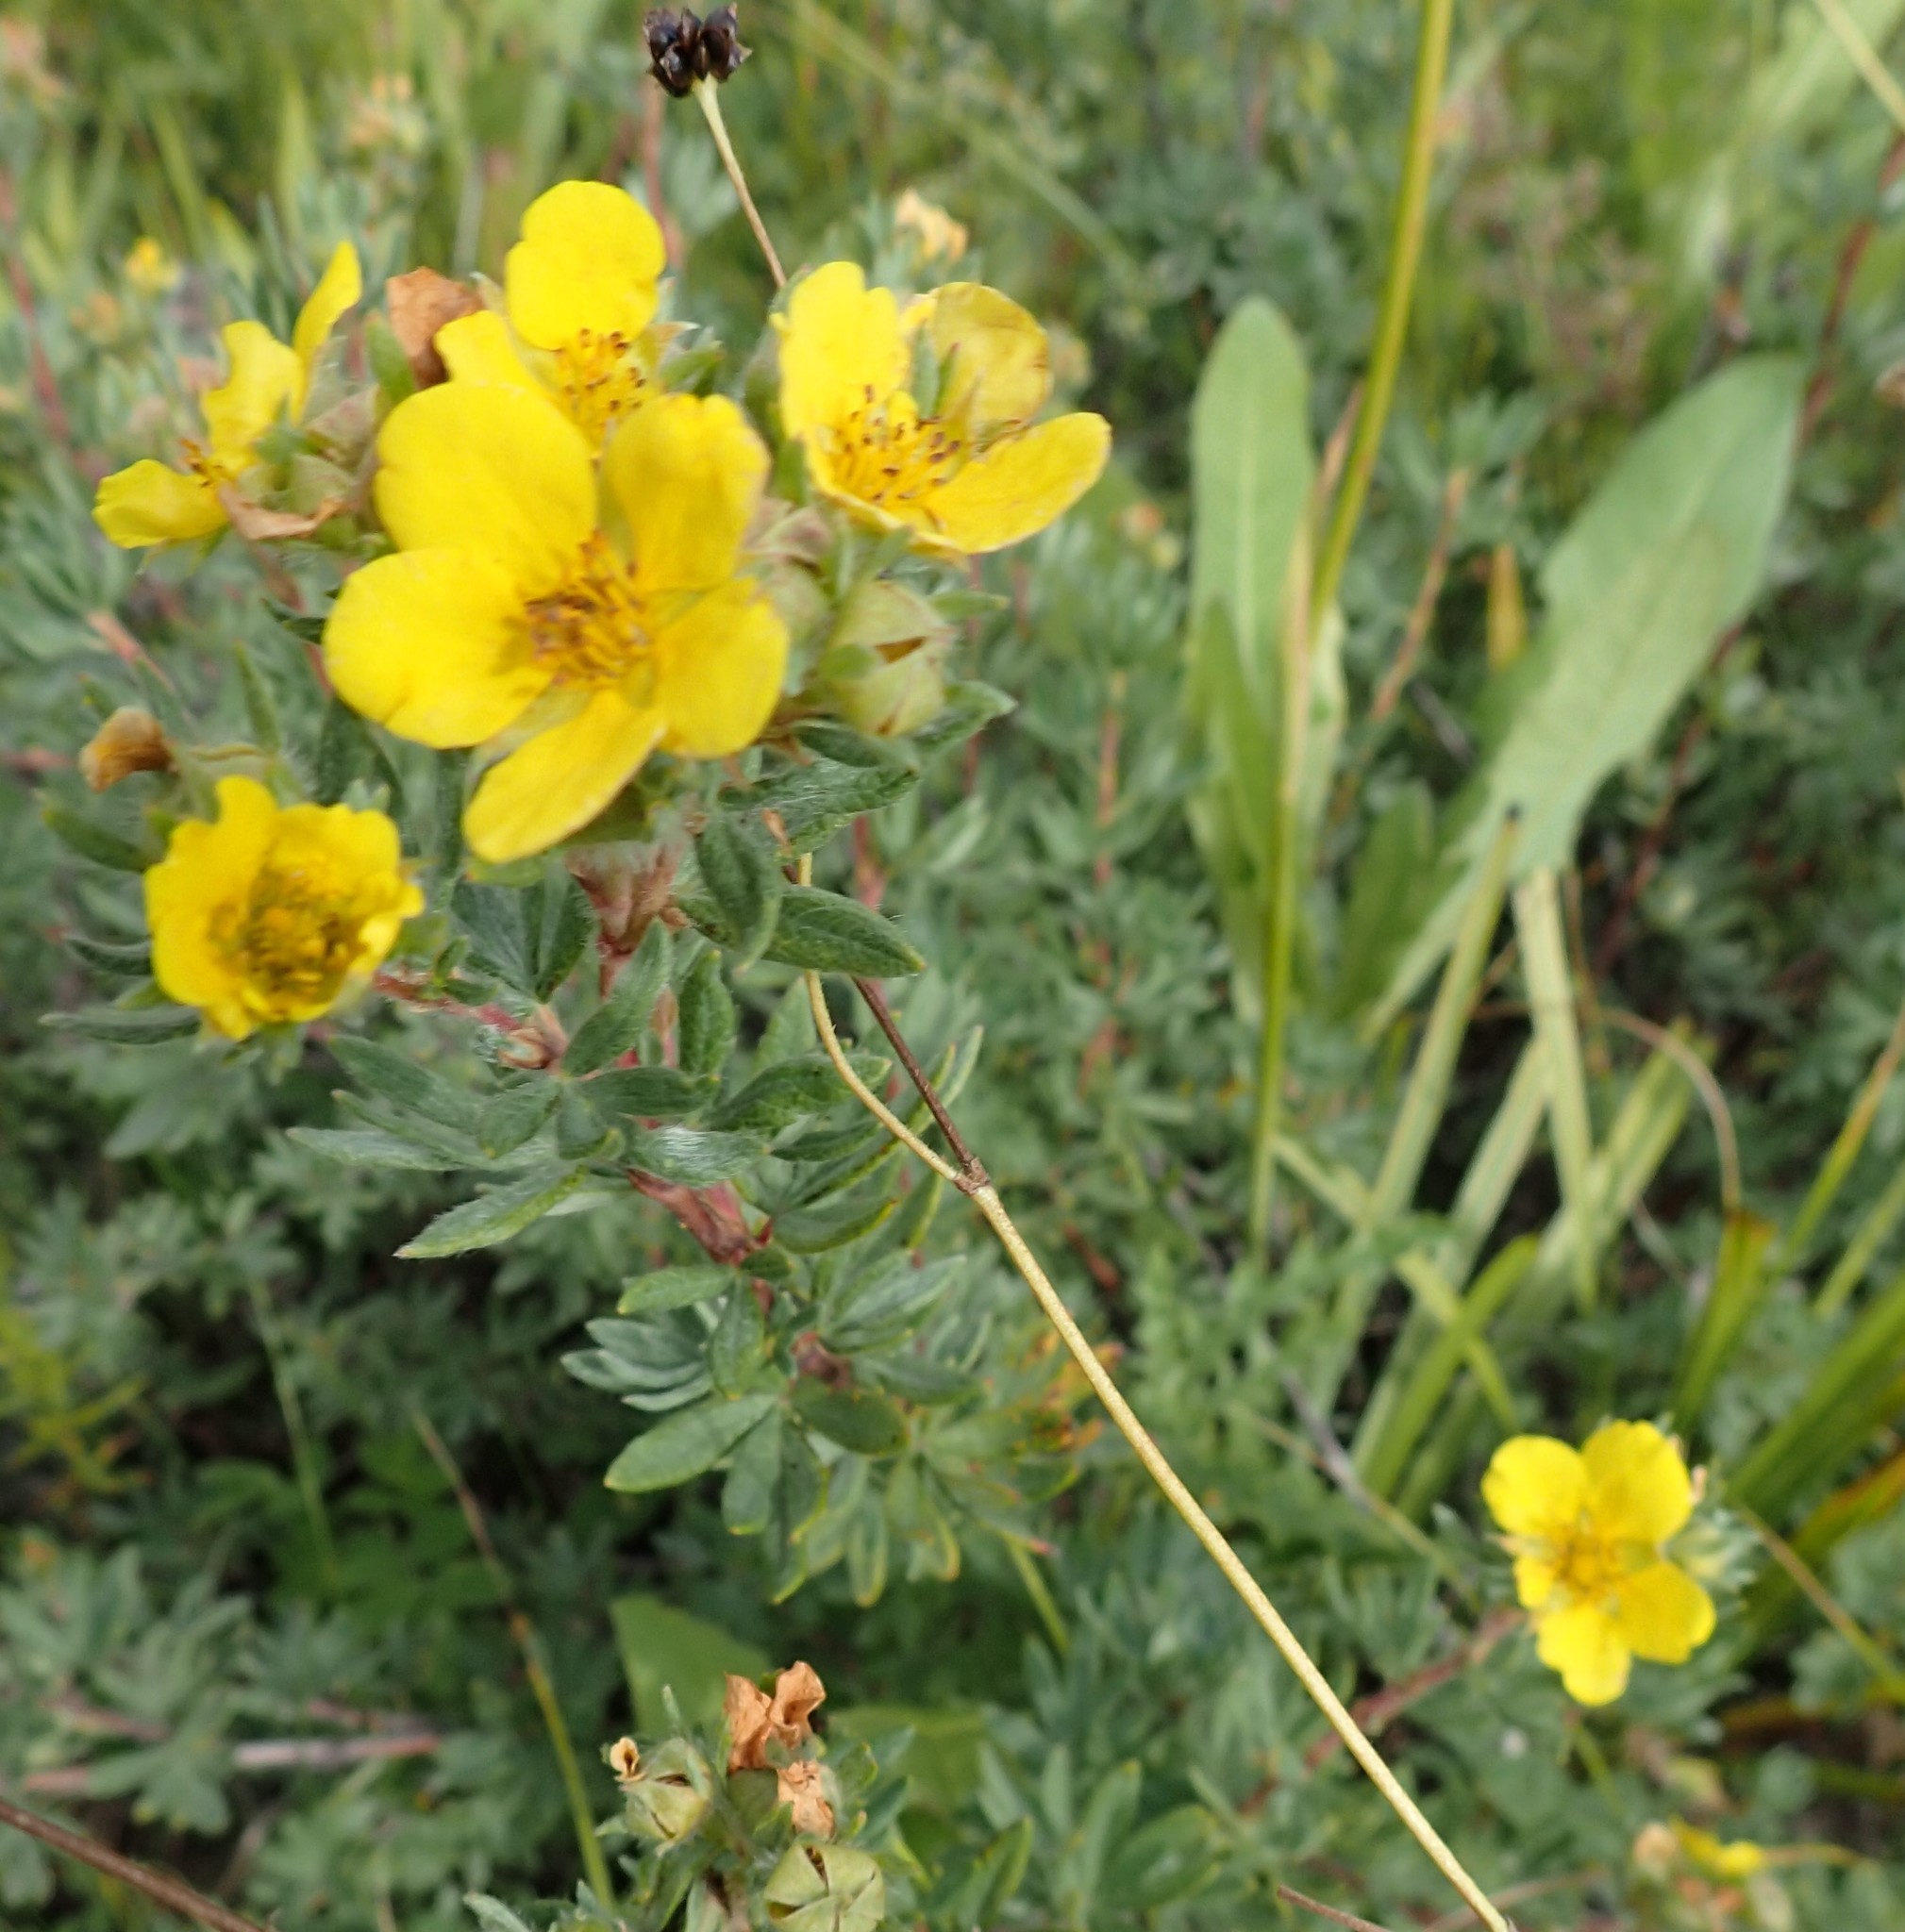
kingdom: Plantae
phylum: Tracheophyta
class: Magnoliopsida
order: Rosales
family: Rosaceae
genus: Dasiphora
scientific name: Dasiphora fruticosa
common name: Shrubby cinquefoil
